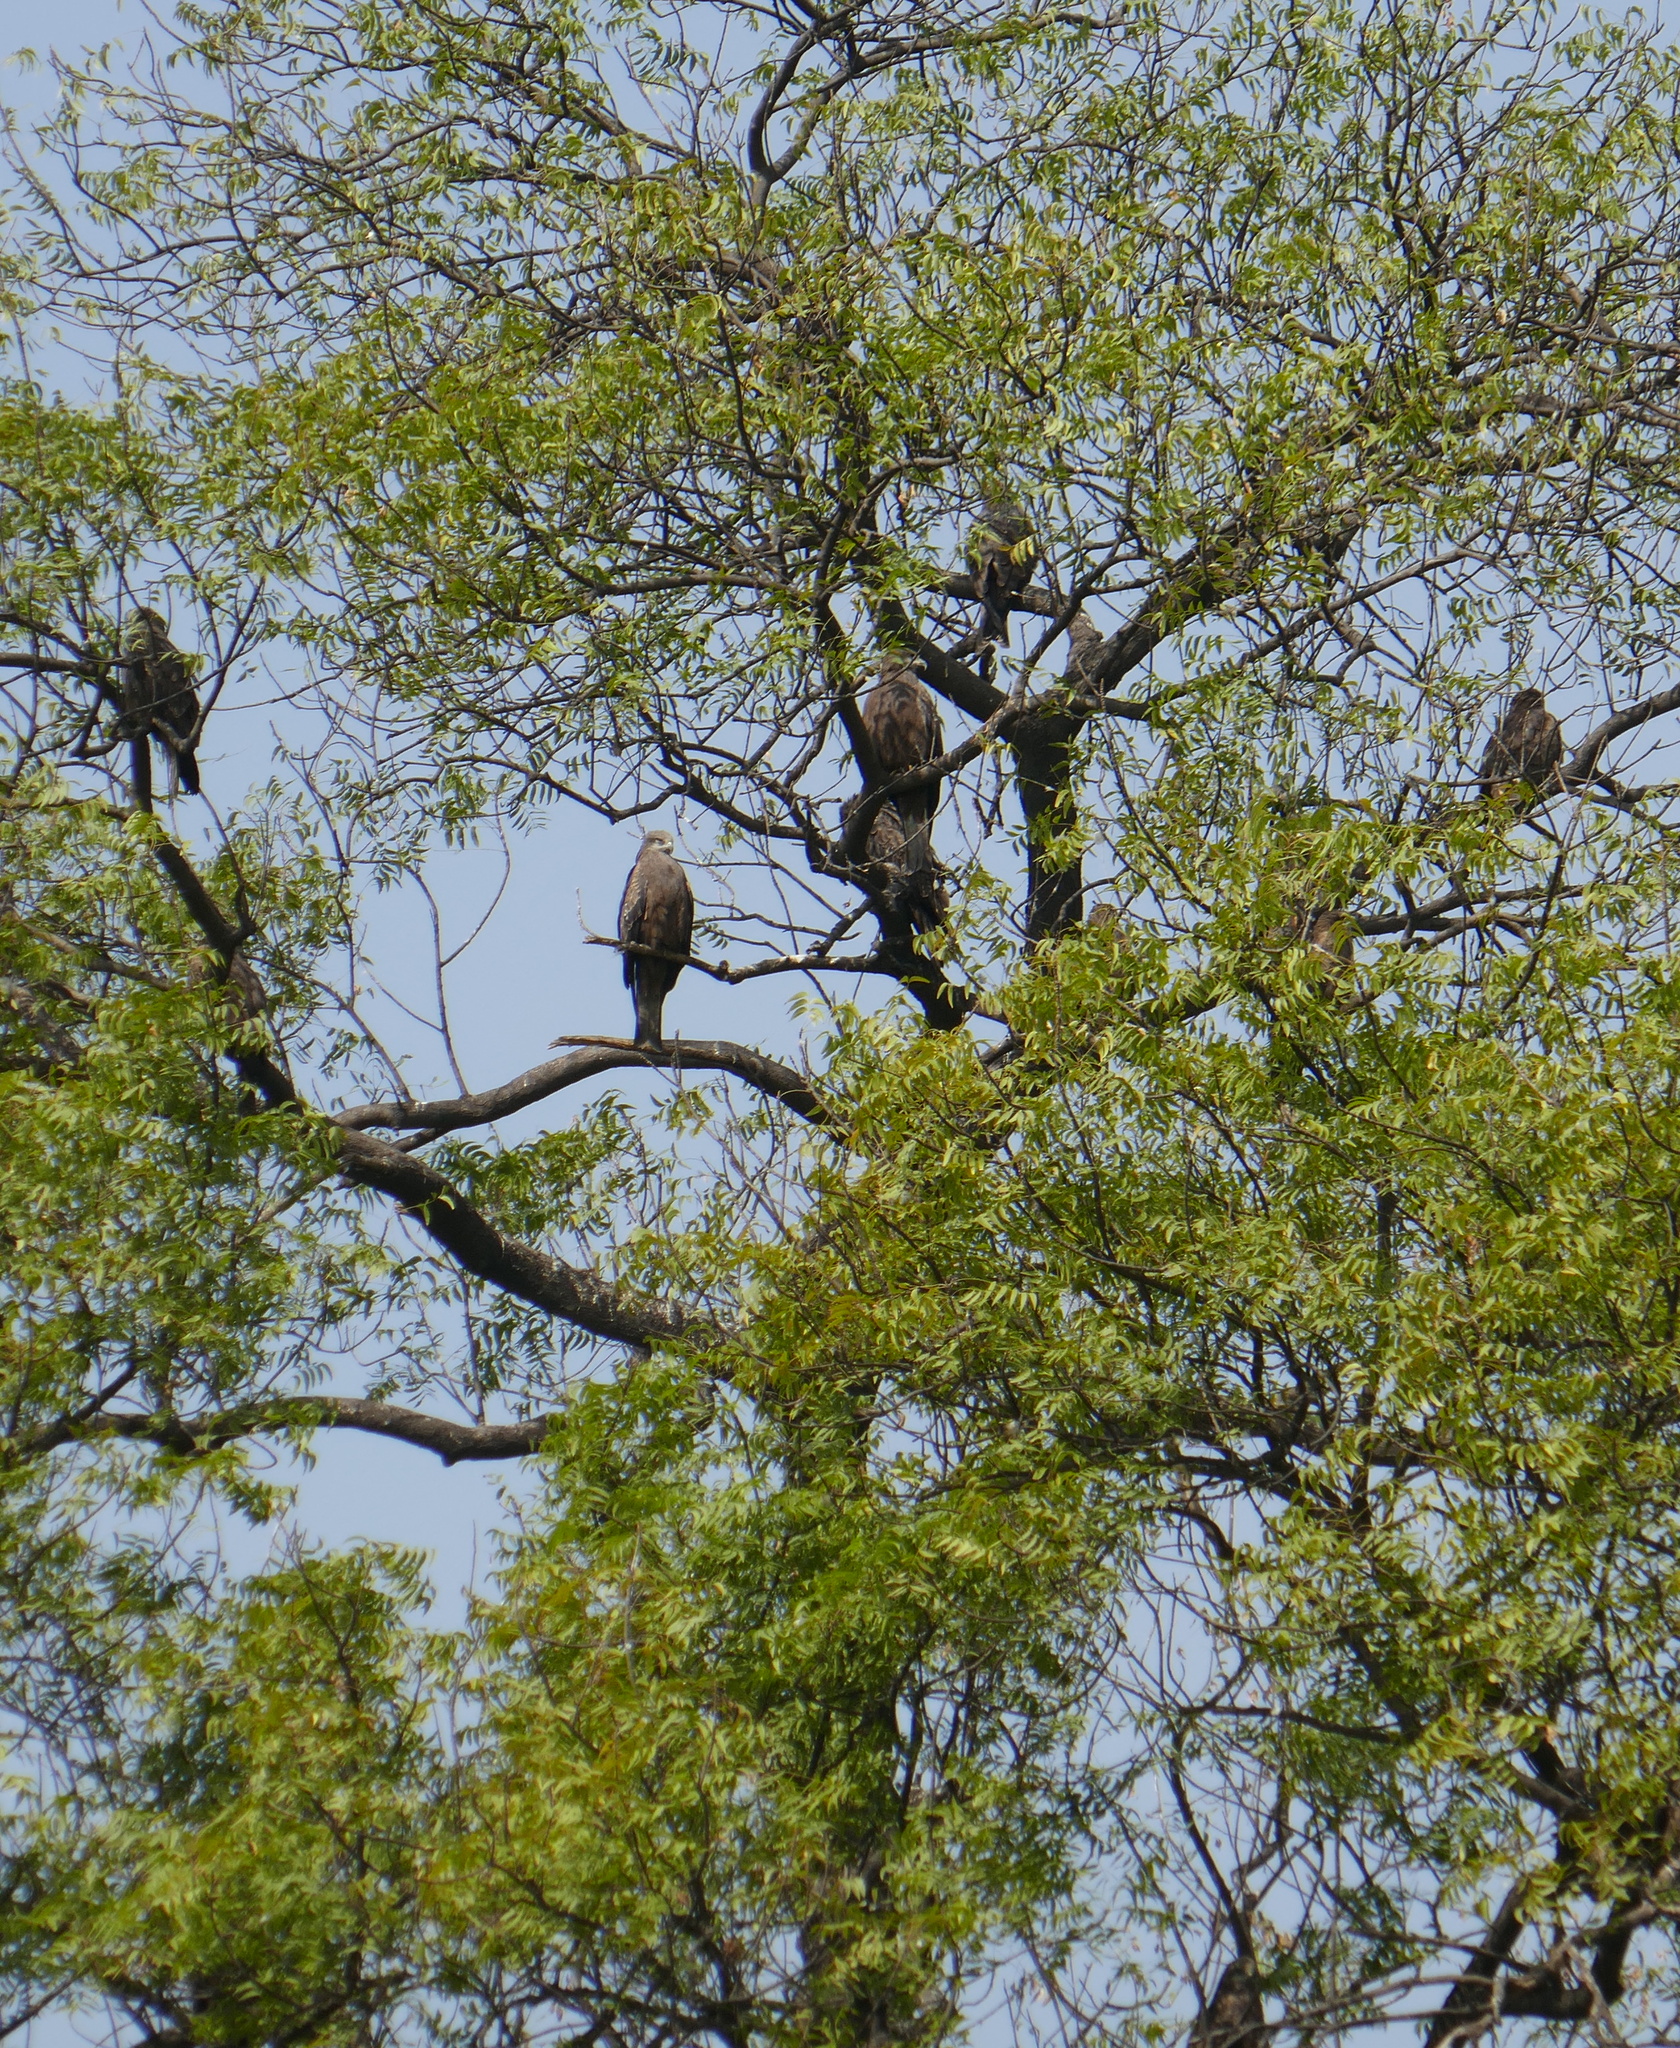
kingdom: Animalia
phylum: Chordata
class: Aves
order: Accipitriformes
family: Accipitridae
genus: Milvus
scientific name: Milvus migrans
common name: Black kite
